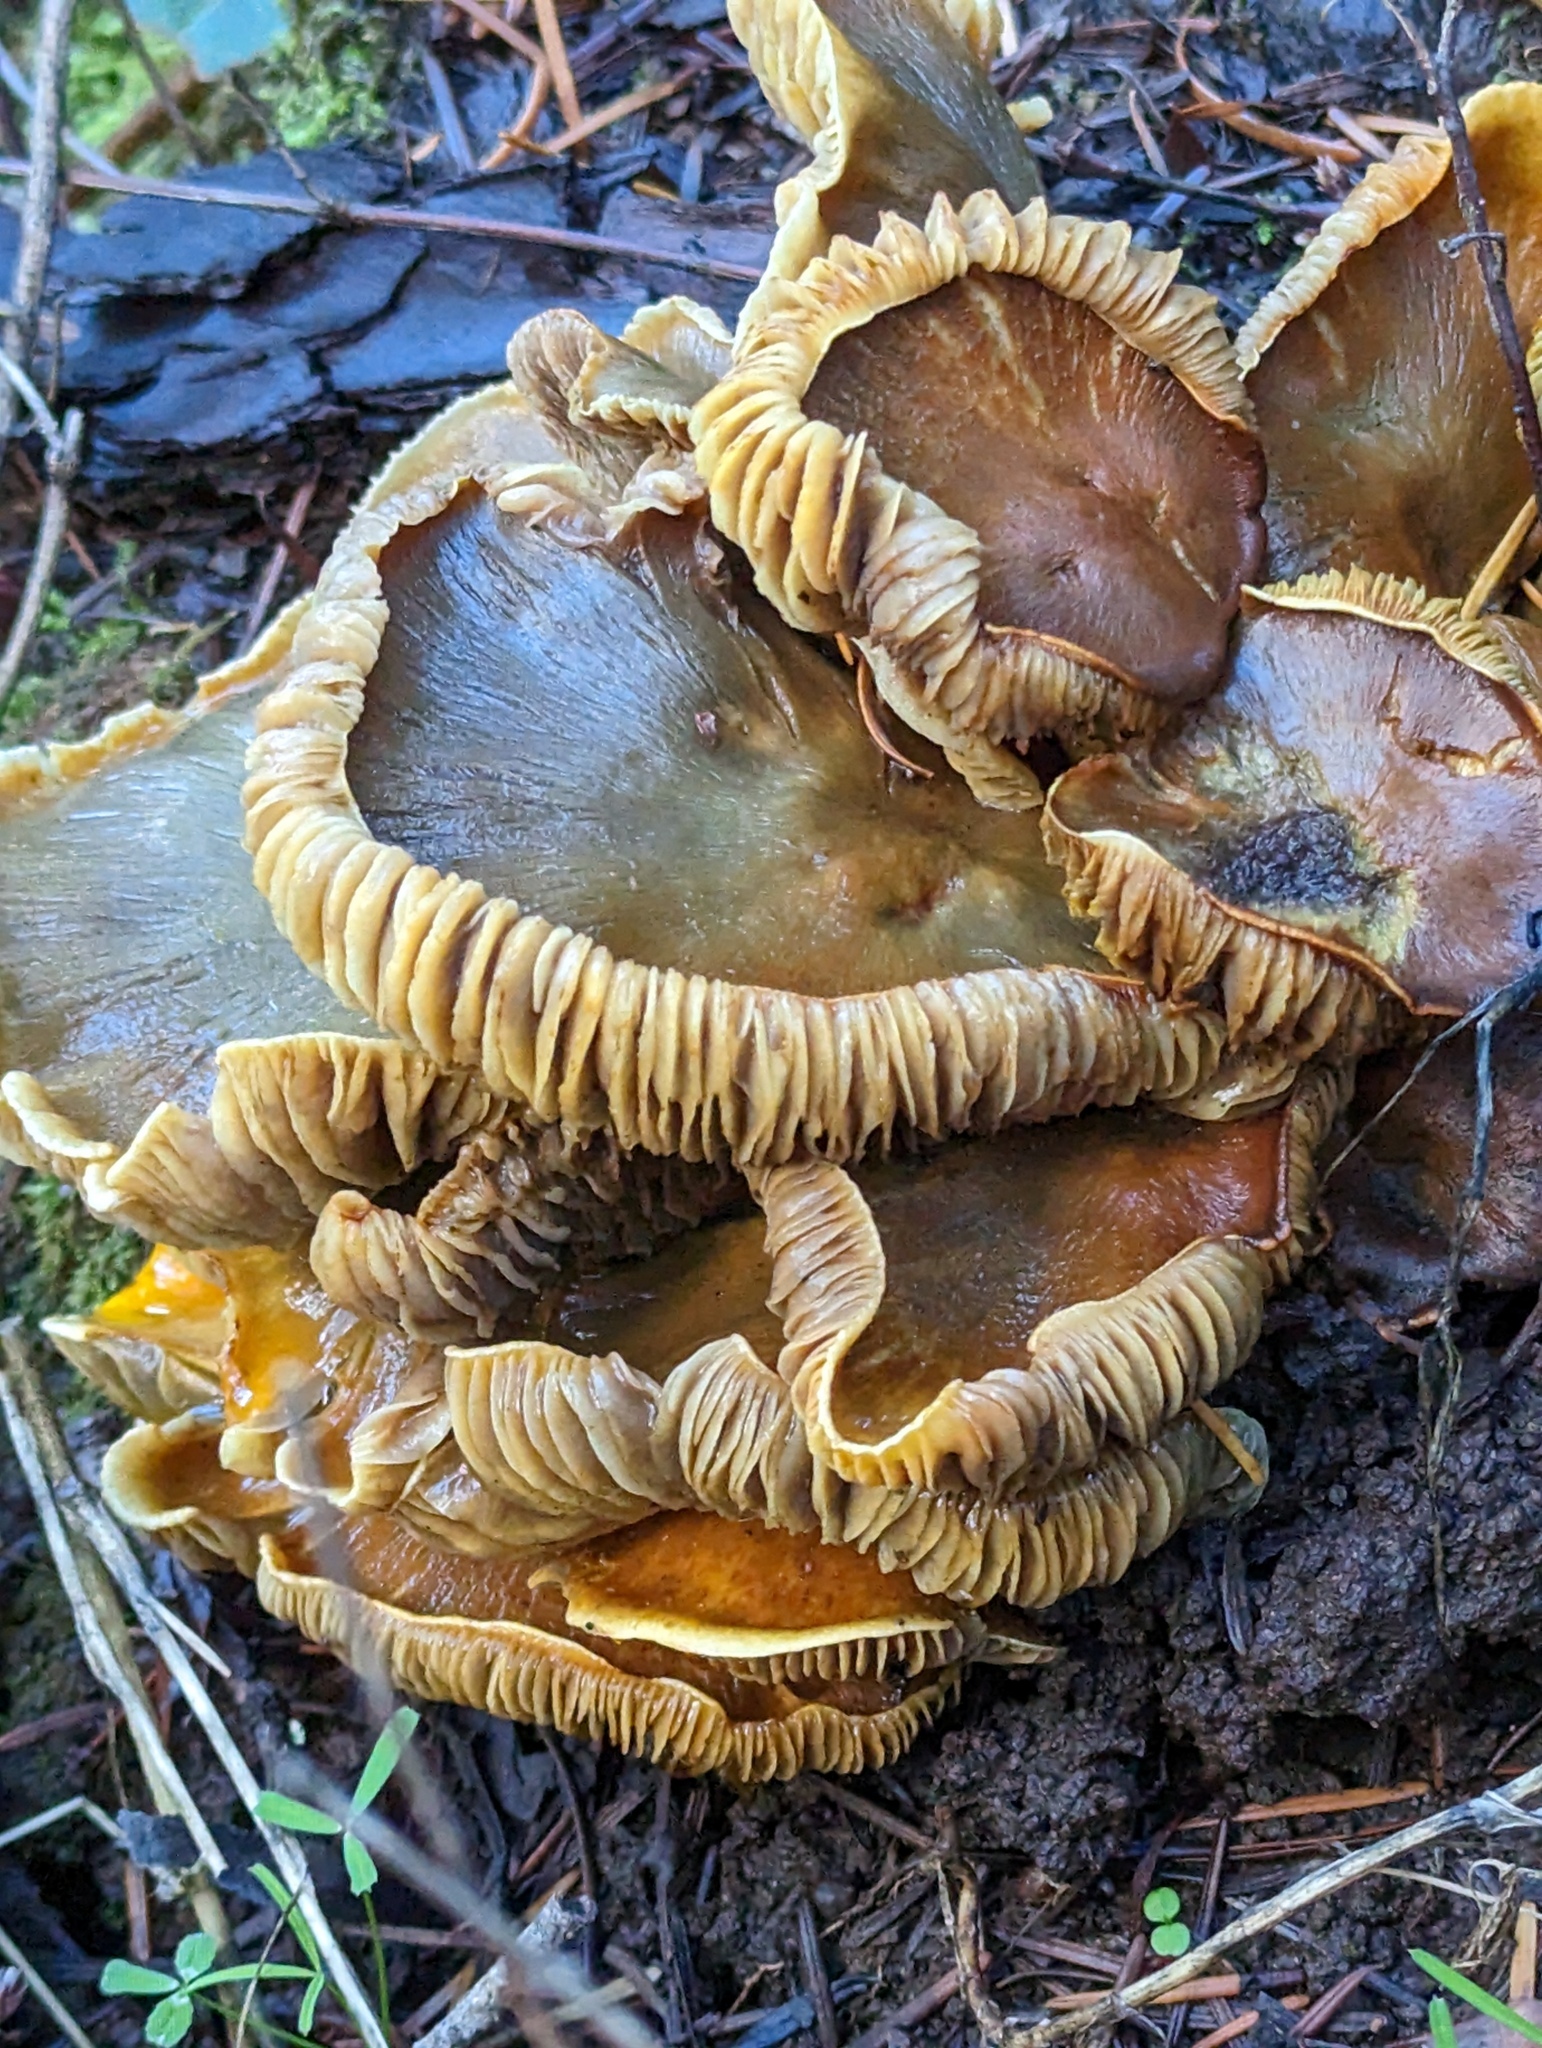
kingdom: Fungi
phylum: Basidiomycota
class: Agaricomycetes
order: Agaricales
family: Omphalotaceae
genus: Omphalotus
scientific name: Omphalotus olivascens
